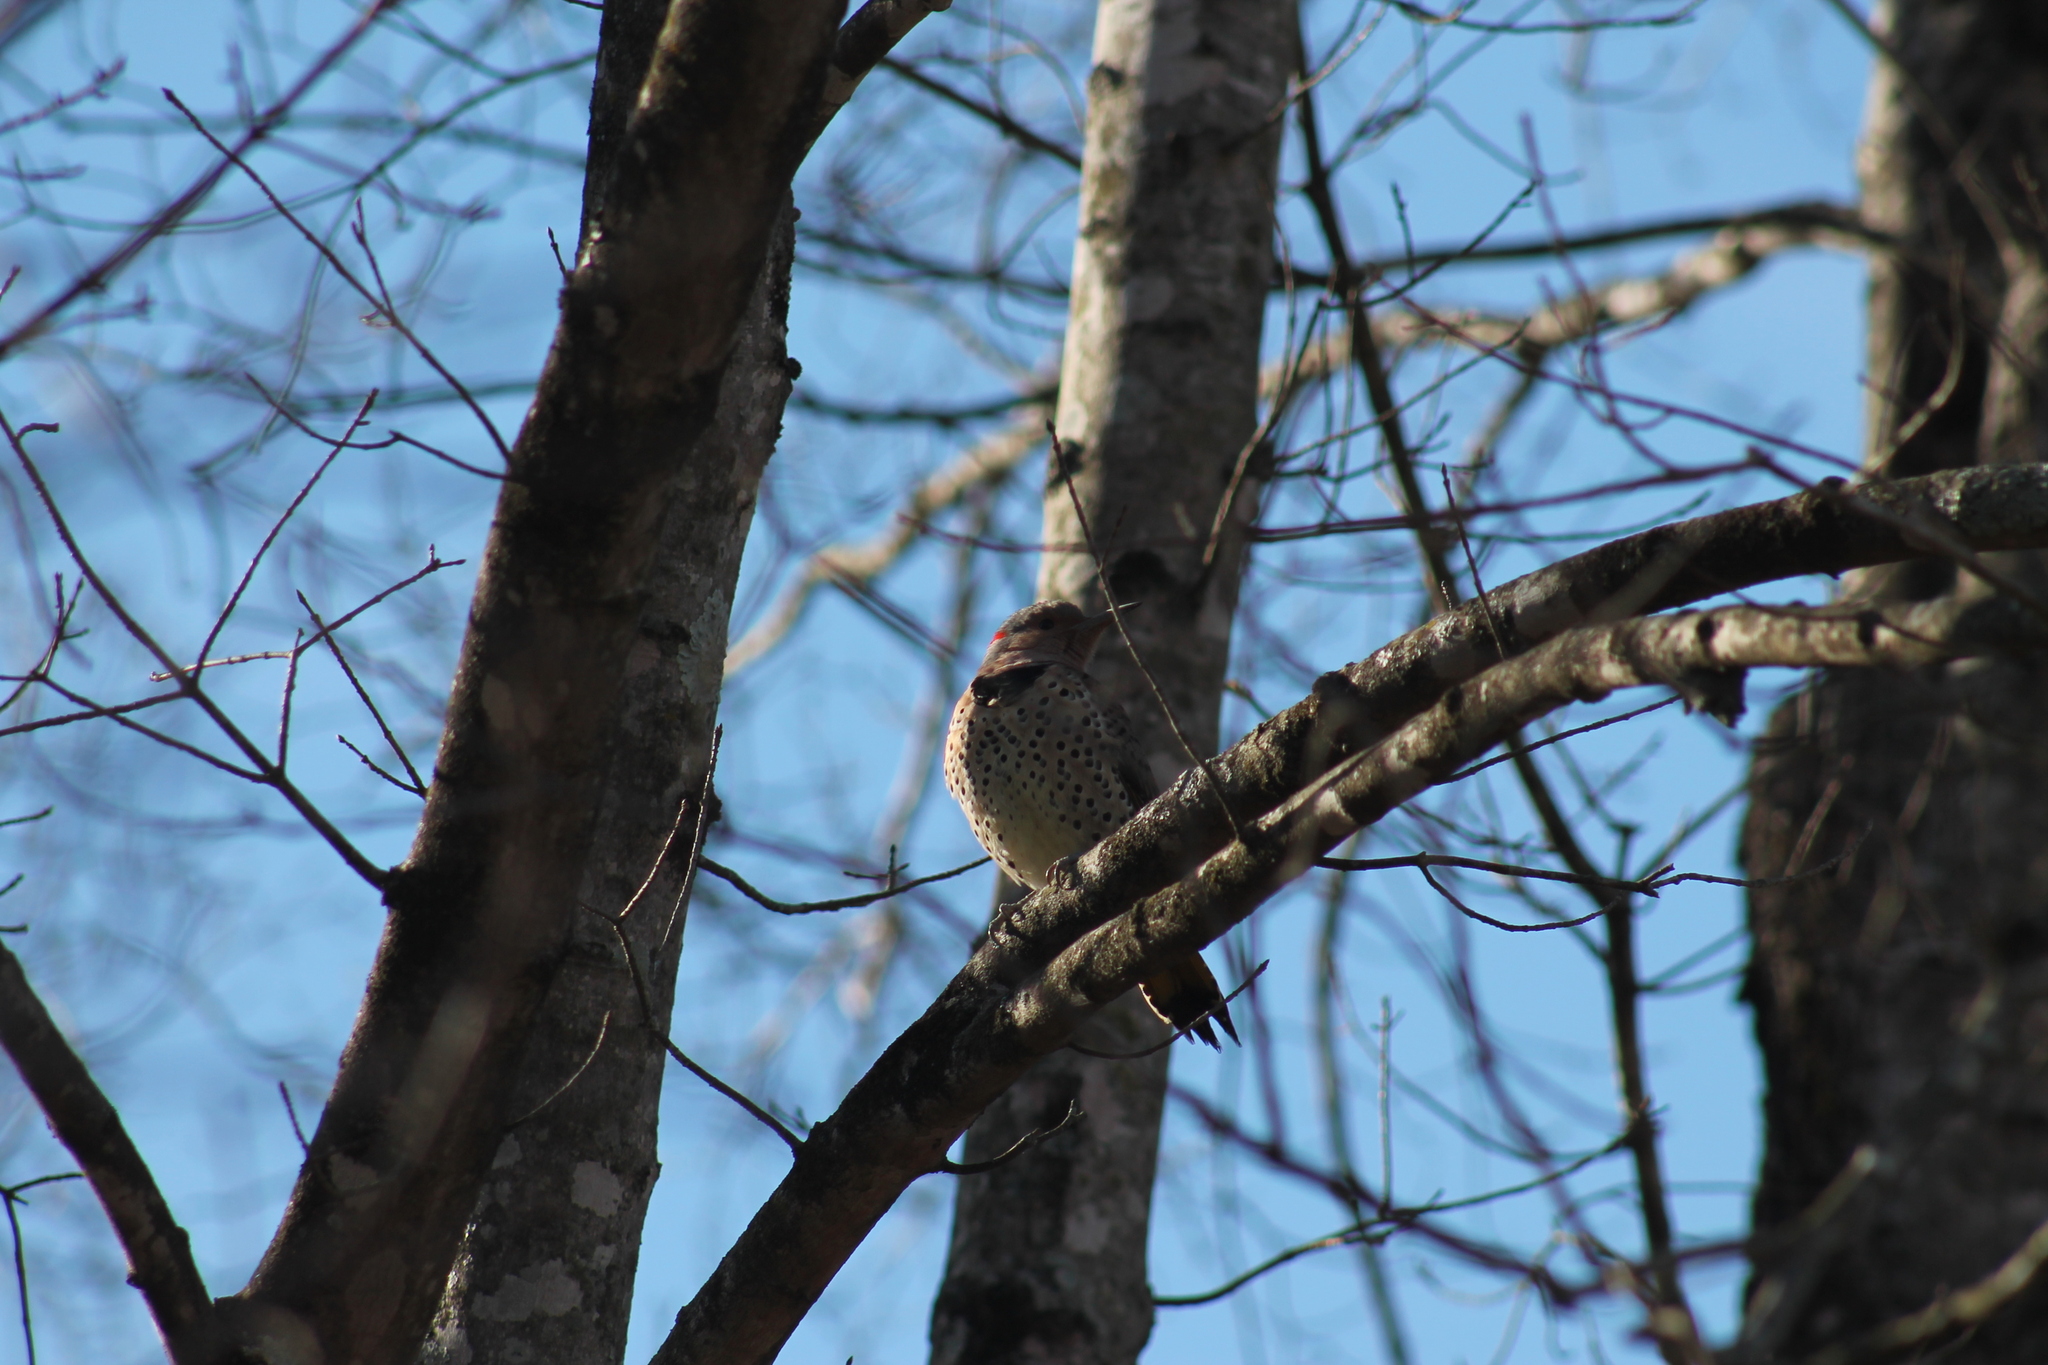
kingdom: Animalia
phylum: Chordata
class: Aves
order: Piciformes
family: Picidae
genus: Colaptes
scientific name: Colaptes auratus
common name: Northern flicker
